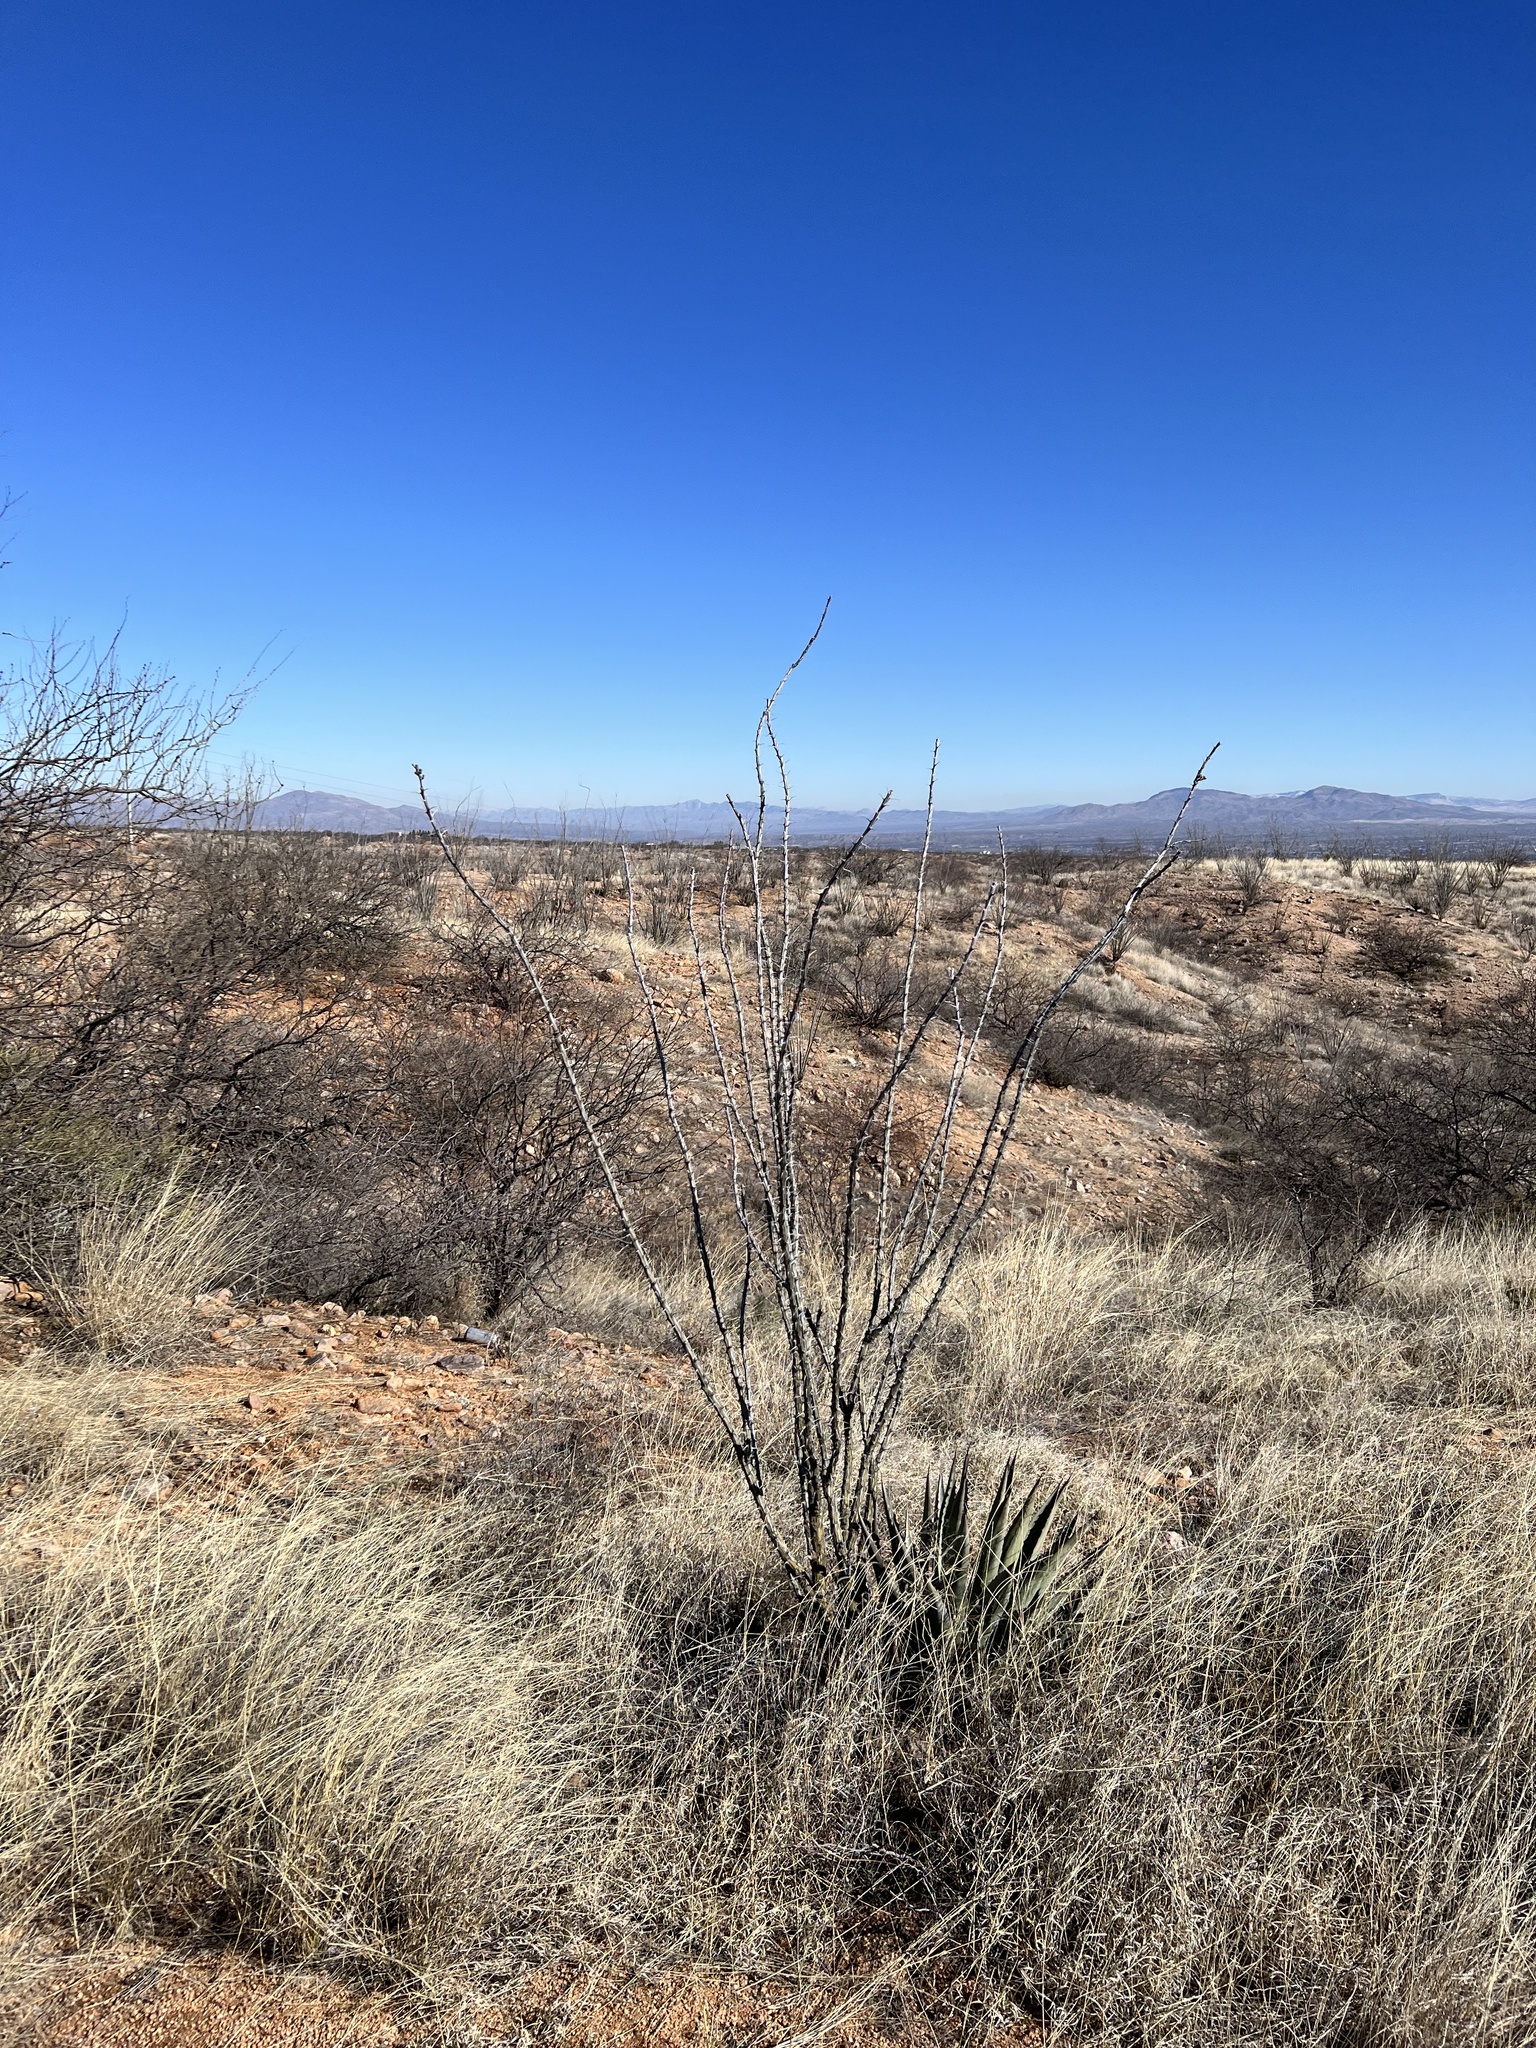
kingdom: Plantae
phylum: Tracheophyta
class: Magnoliopsida
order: Ericales
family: Fouquieriaceae
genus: Fouquieria
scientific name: Fouquieria splendens
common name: Vine-cactus
